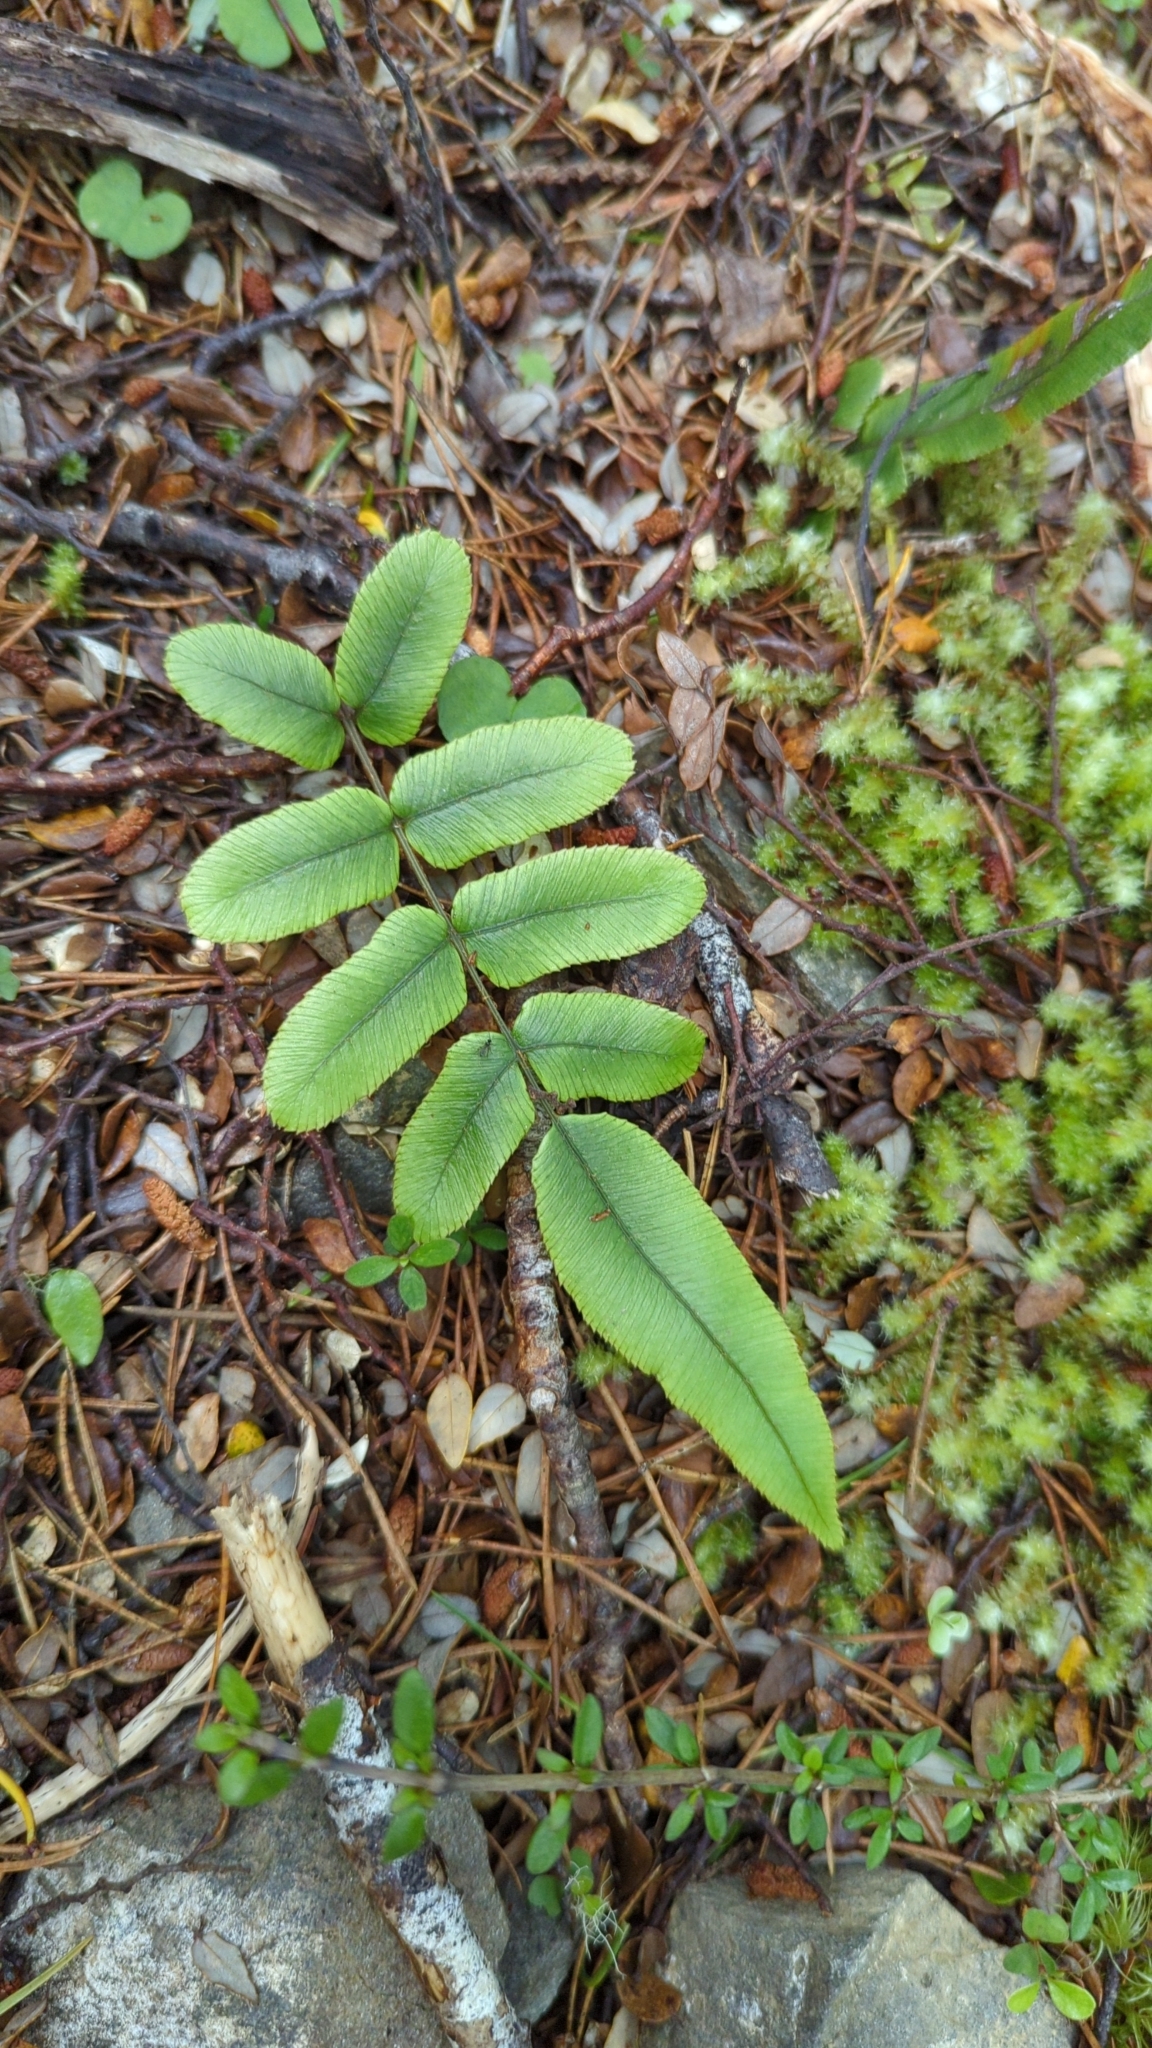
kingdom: Plantae
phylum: Tracheophyta
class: Polypodiopsida
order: Polypodiales
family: Blechnaceae
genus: Parablechnum
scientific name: Parablechnum procerum
